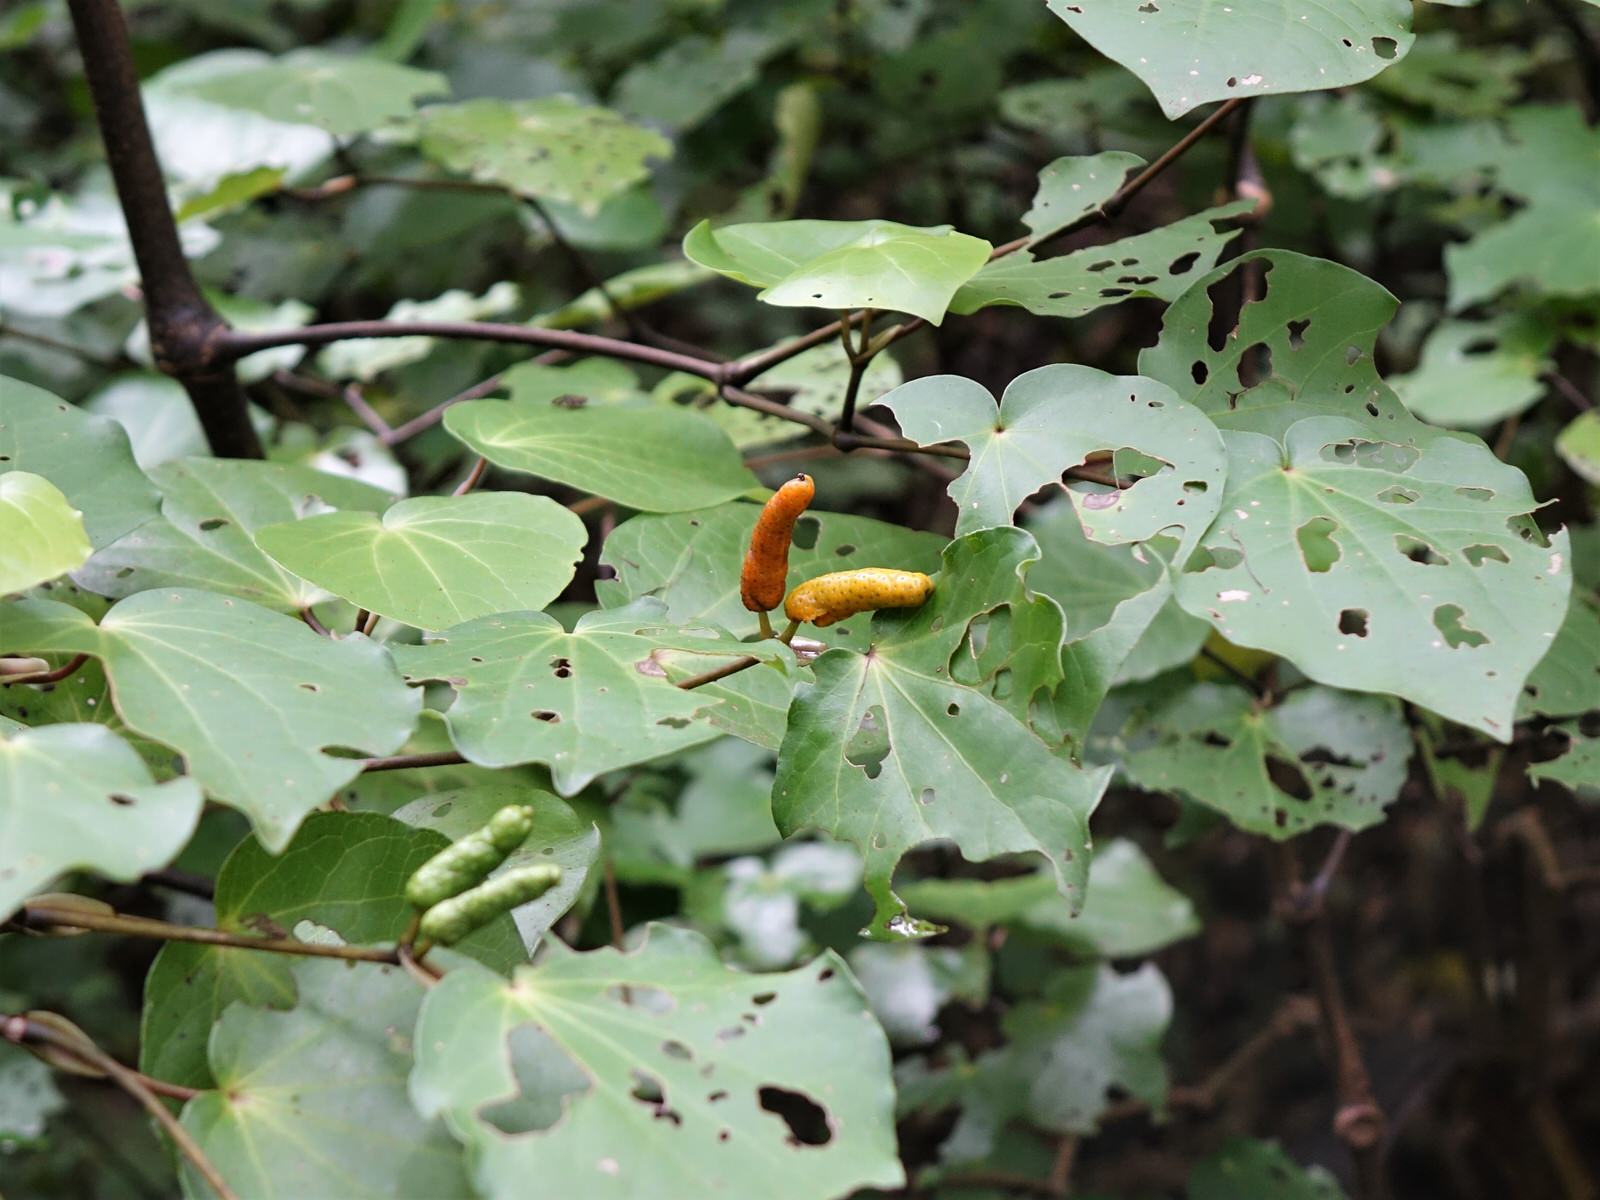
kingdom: Plantae
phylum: Tracheophyta
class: Magnoliopsida
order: Piperales
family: Piperaceae
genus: Macropiper
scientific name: Macropiper excelsum
